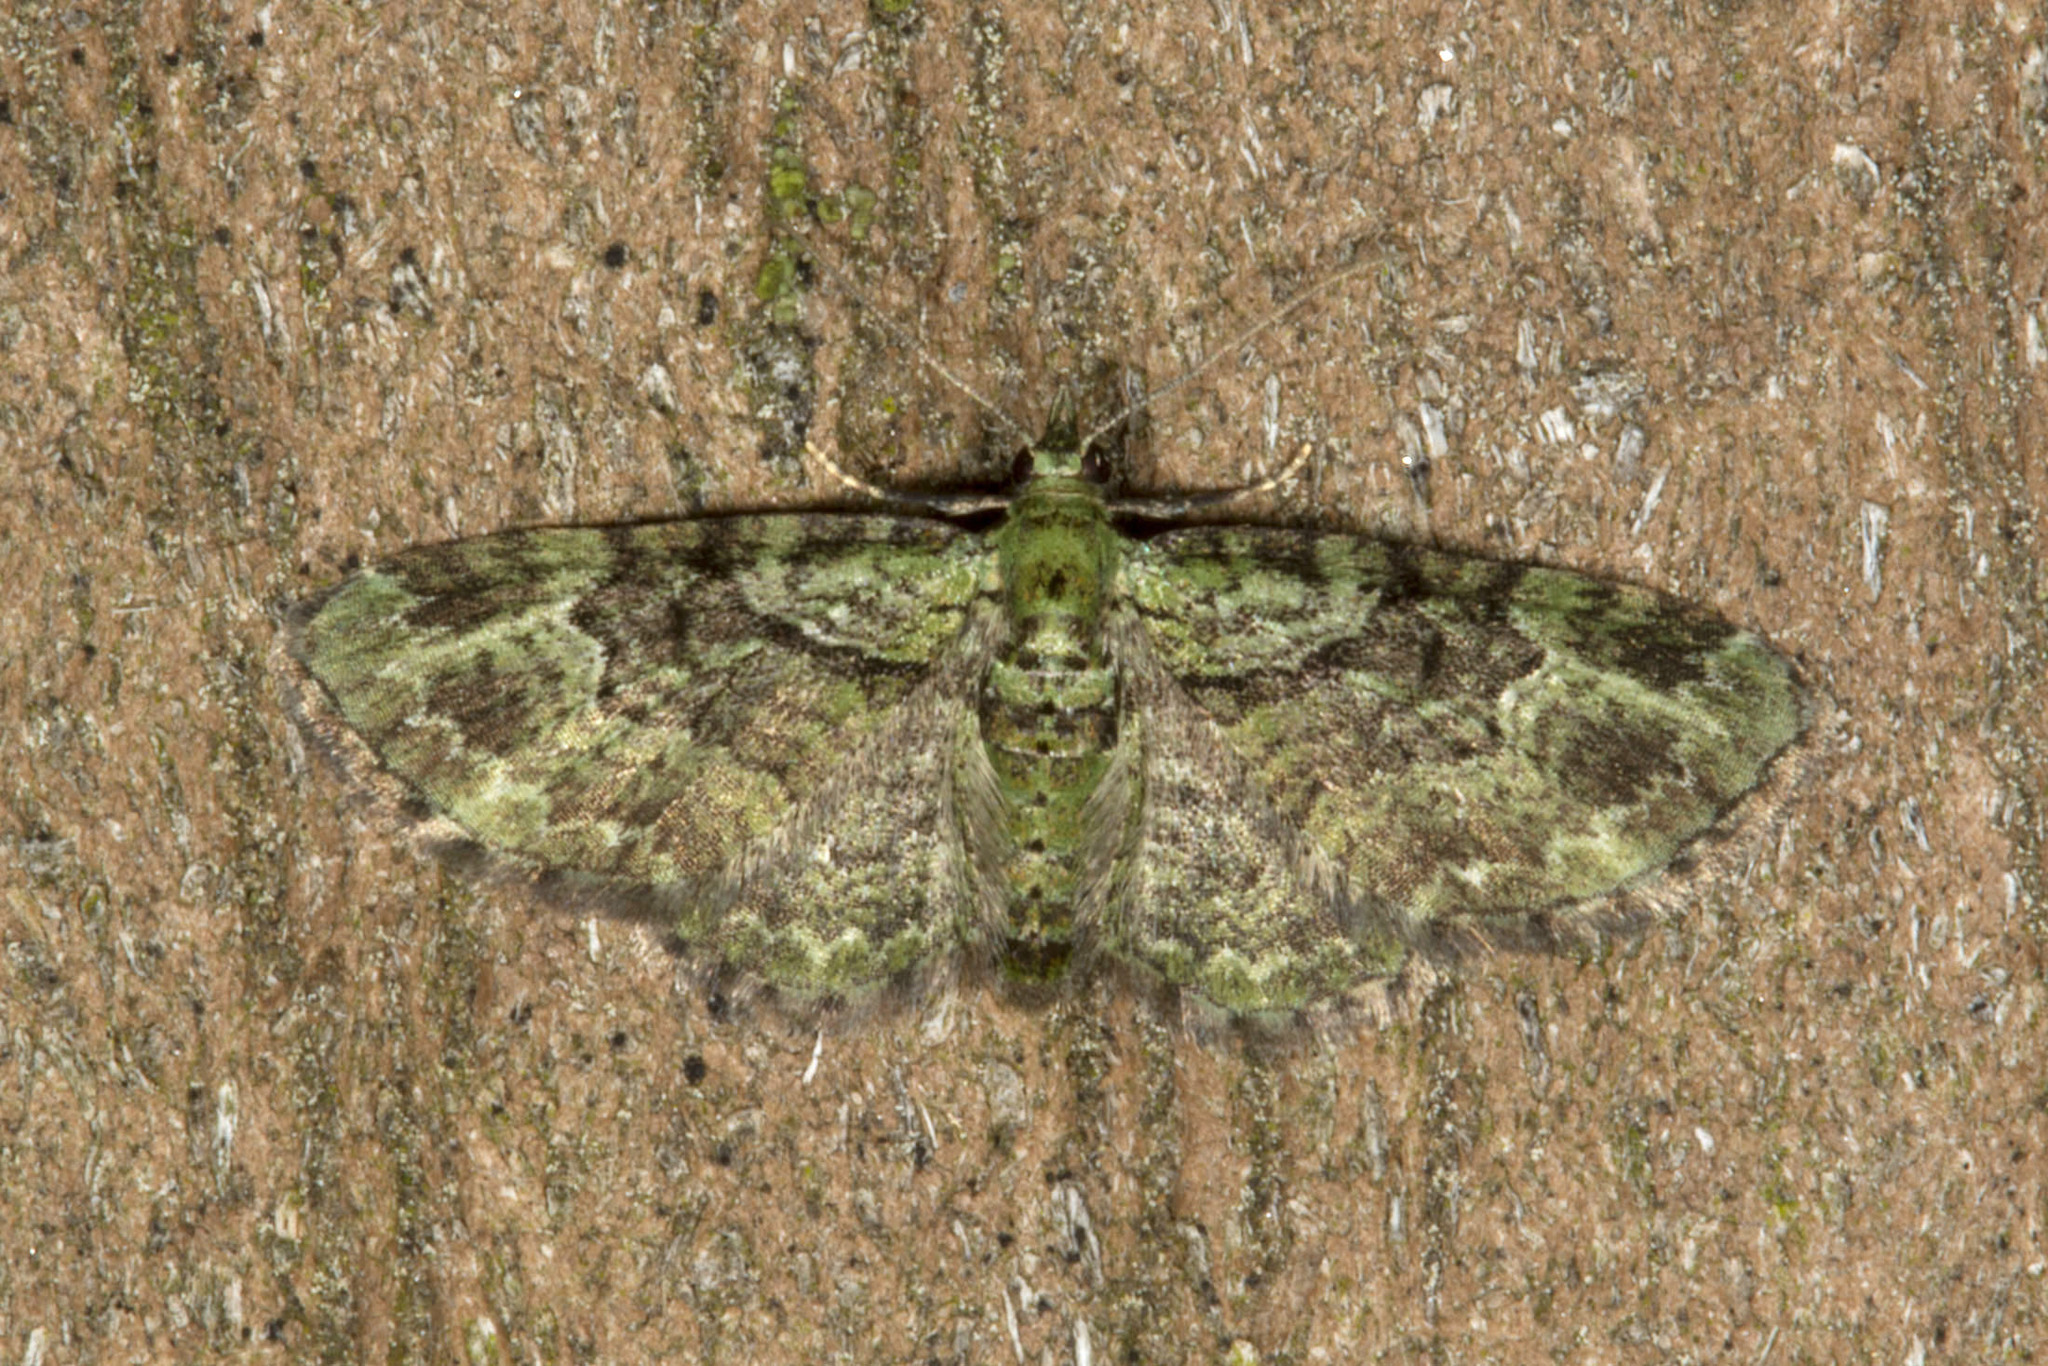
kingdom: Animalia
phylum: Arthropoda
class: Insecta
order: Lepidoptera
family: Geometridae
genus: Pasiphila
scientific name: Pasiphila rectangulata
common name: Green pug
